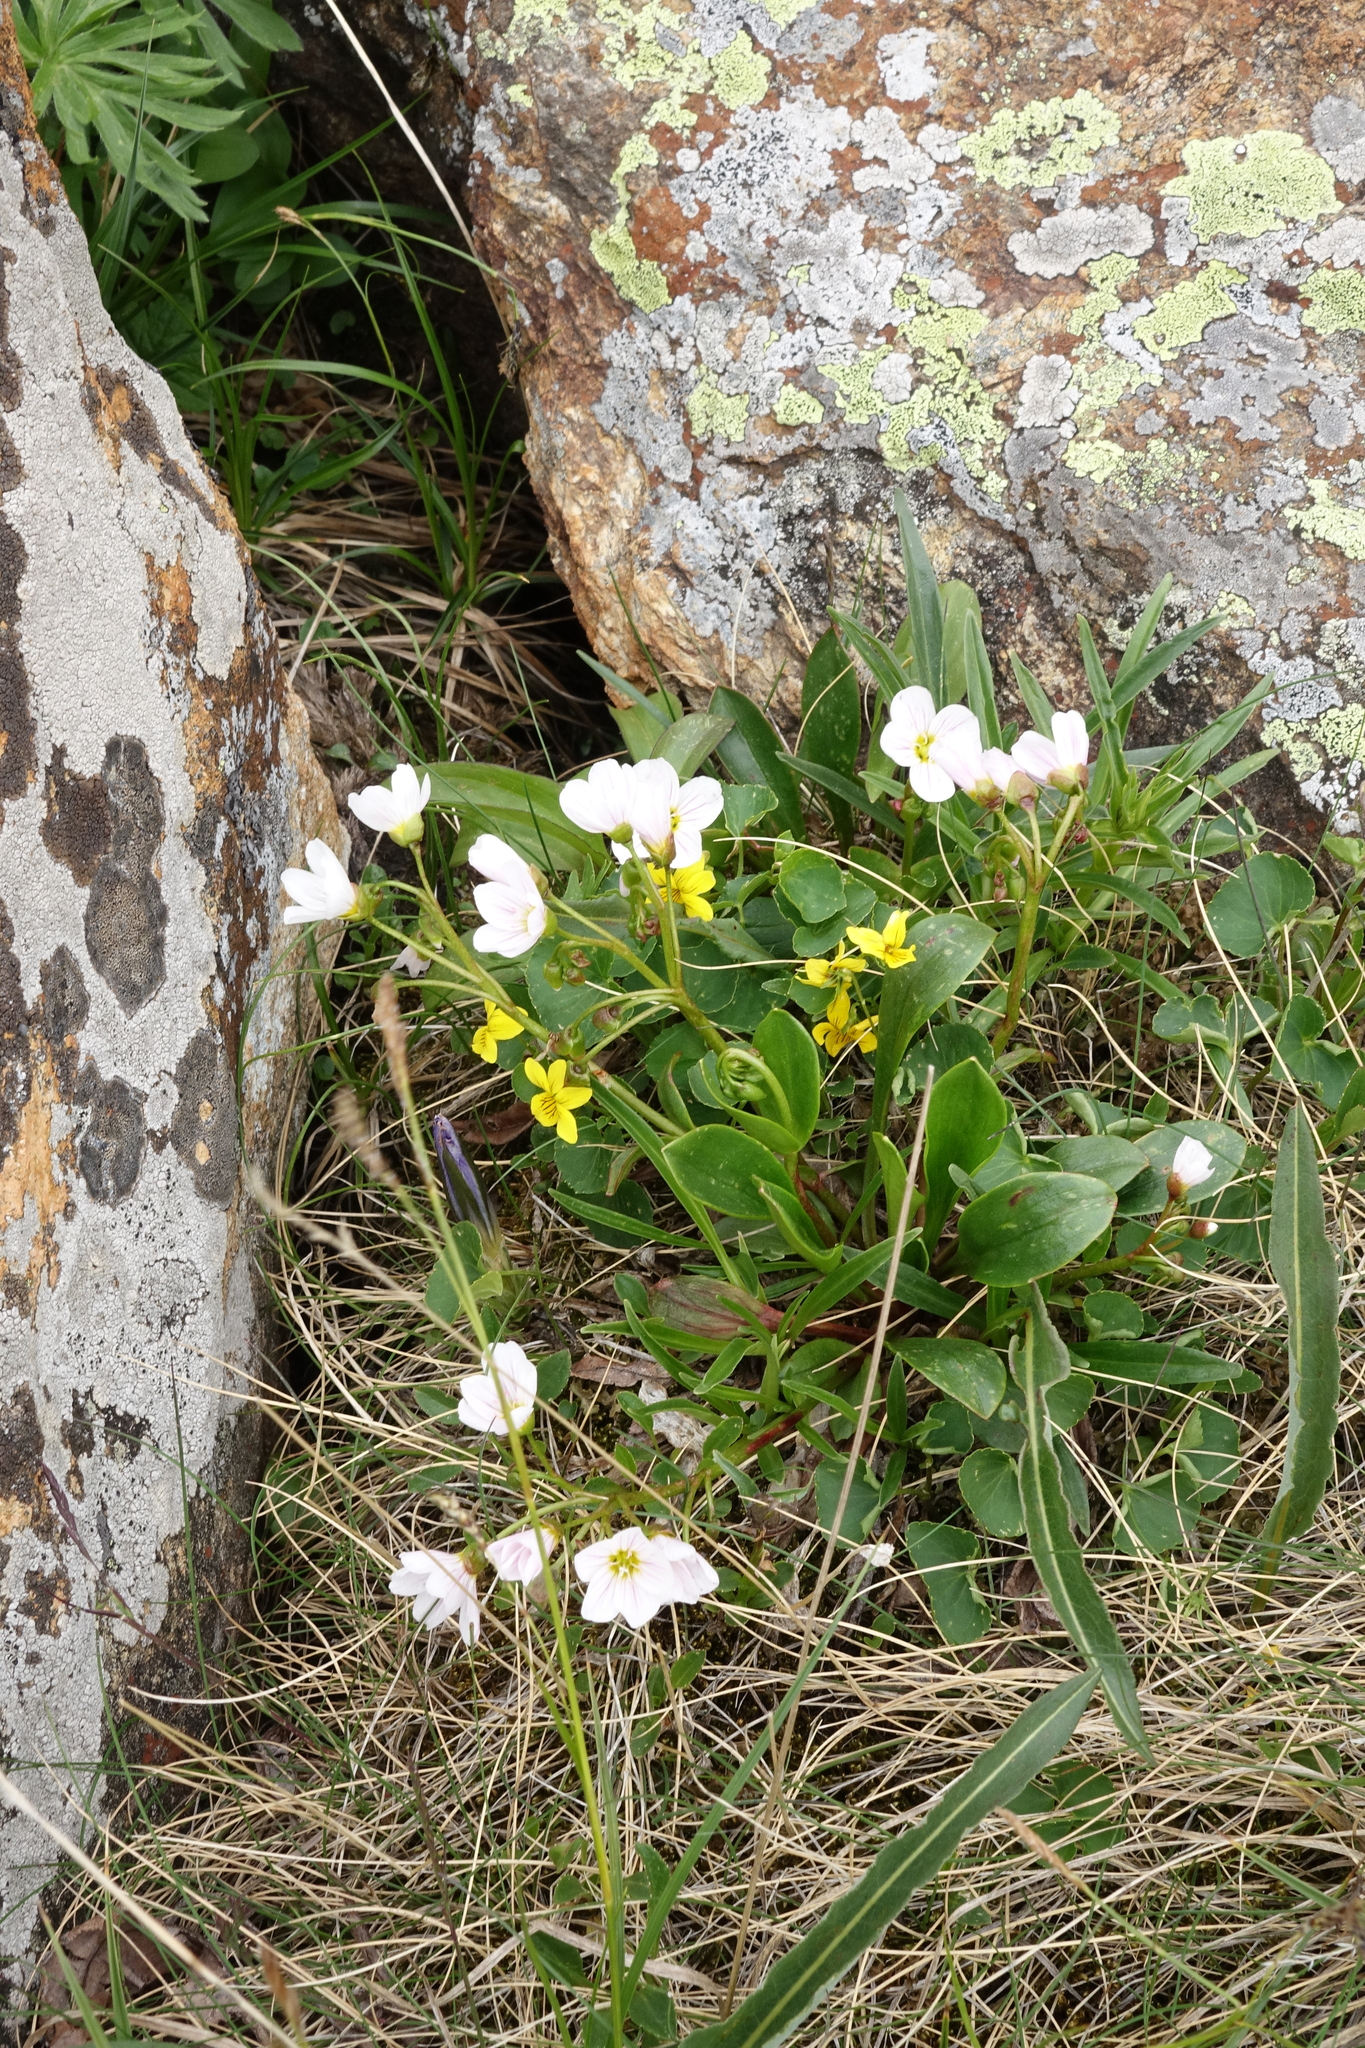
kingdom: Plantae
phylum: Tracheophyta
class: Magnoliopsida
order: Malpighiales
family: Violaceae
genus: Viola
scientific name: Viola biflora
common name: Alpine yellow violet
